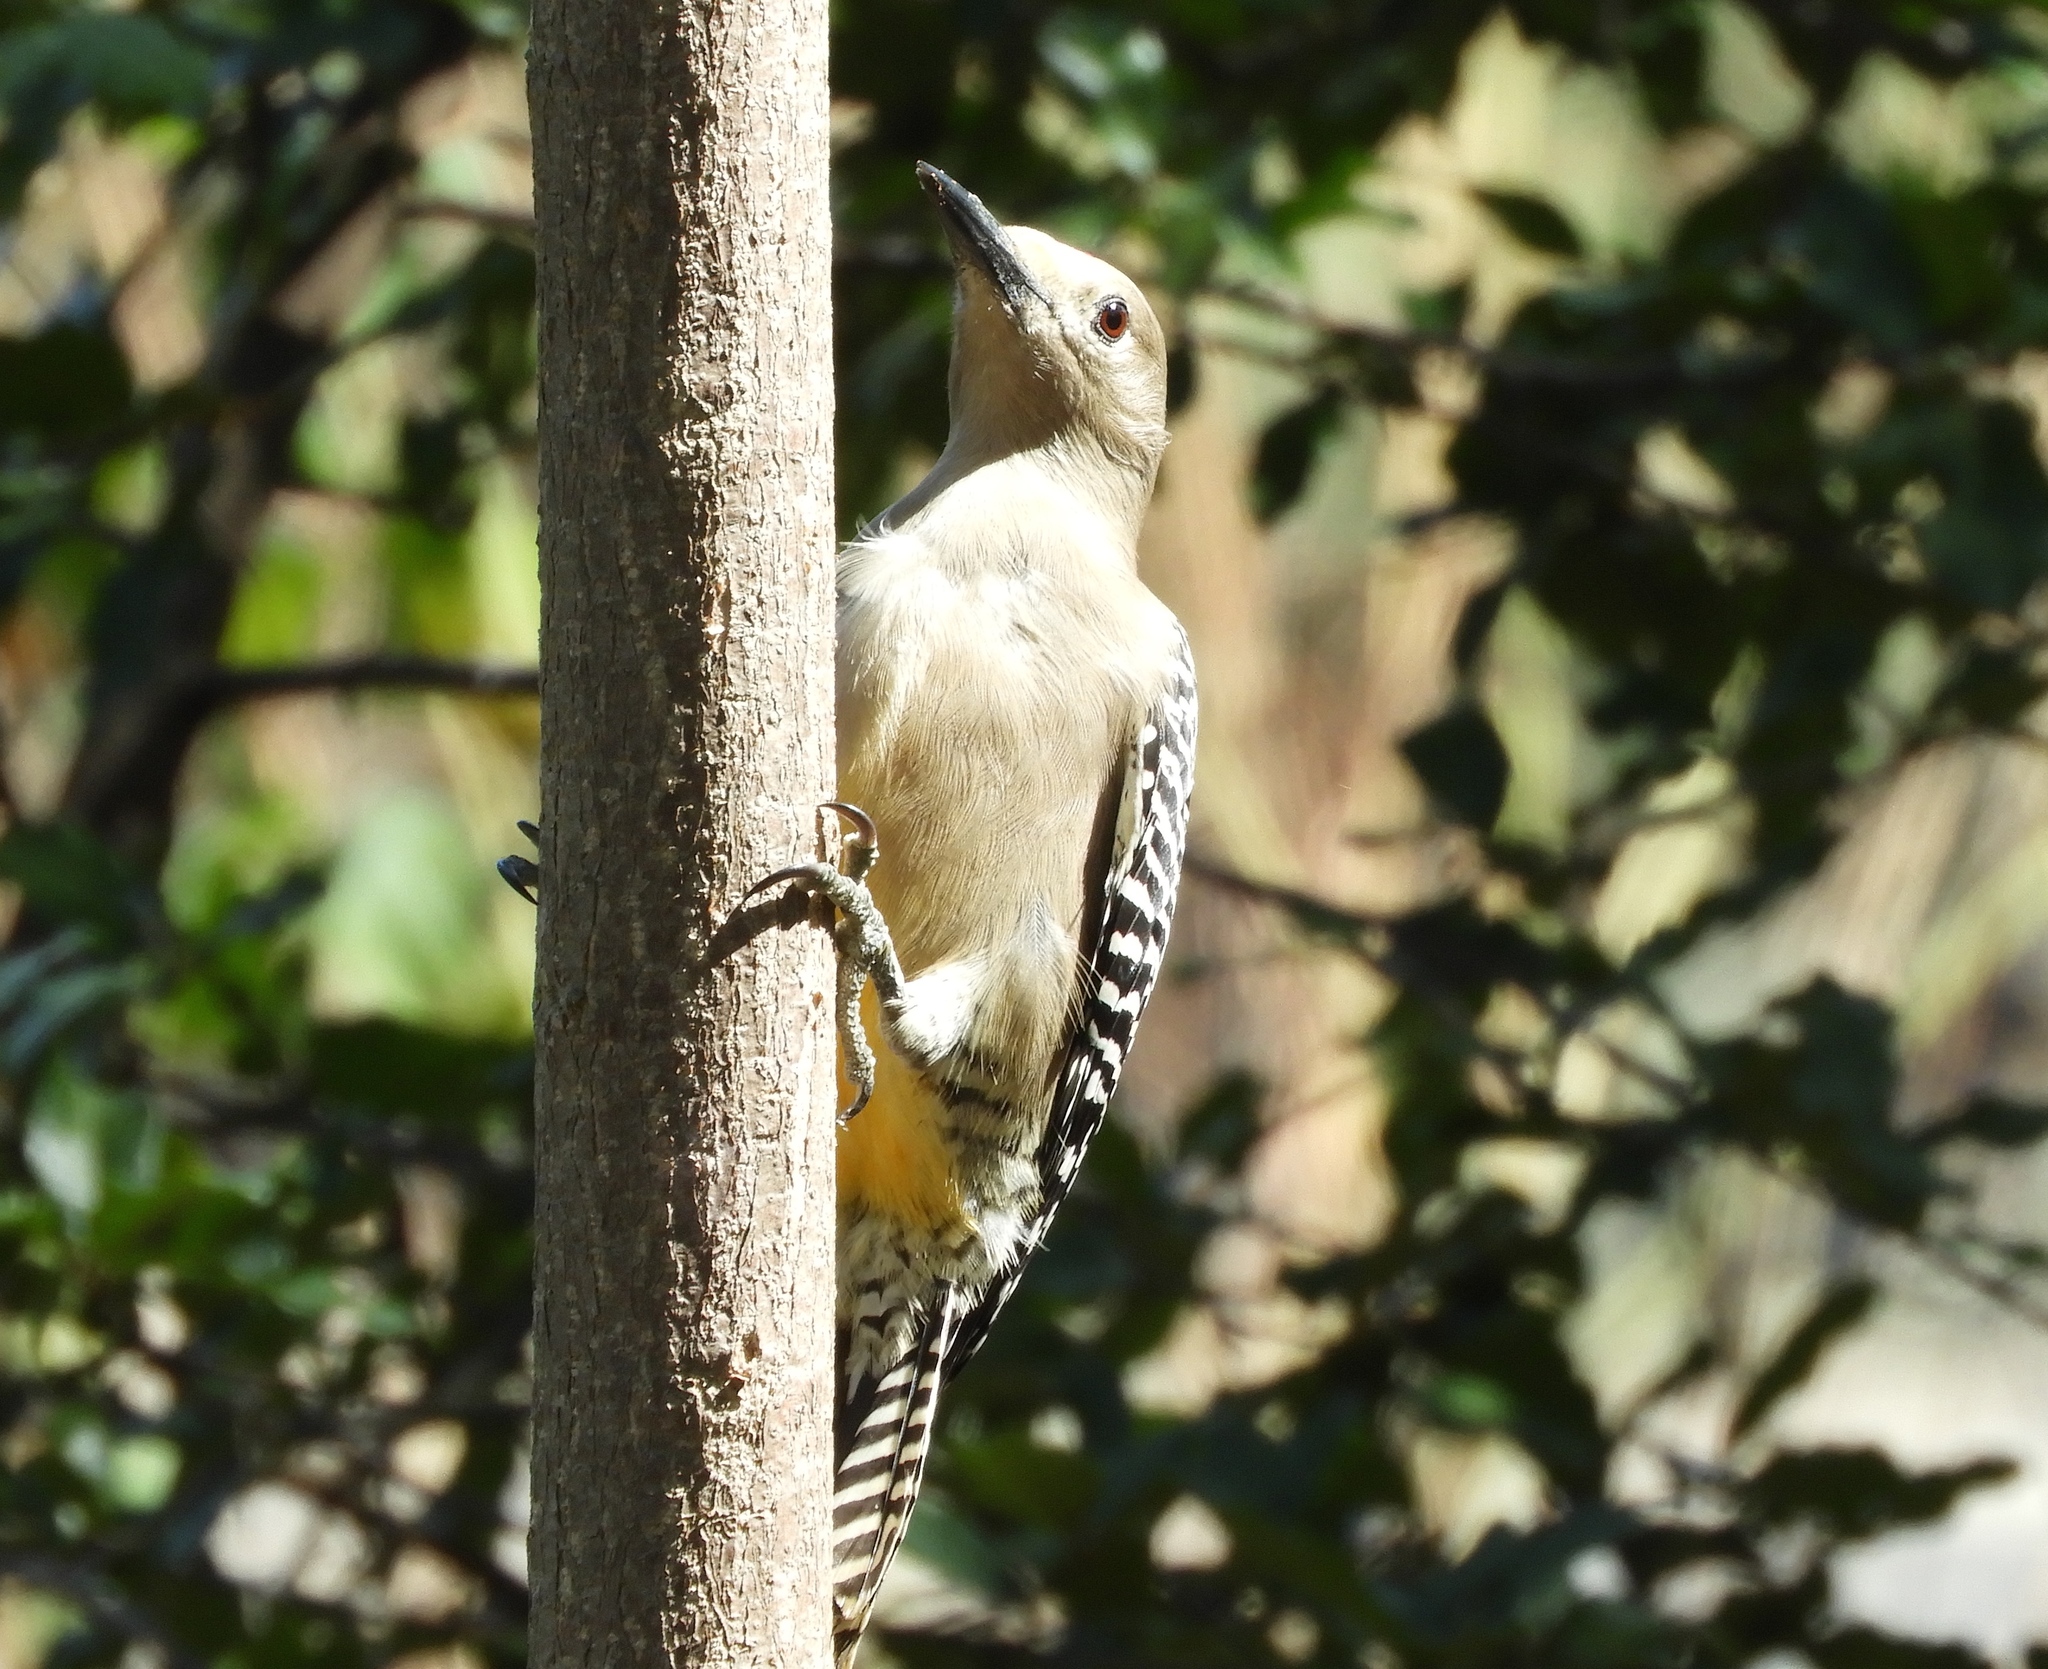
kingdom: Animalia
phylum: Chordata
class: Aves
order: Piciformes
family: Picidae
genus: Melanerpes
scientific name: Melanerpes uropygialis
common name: Gila woodpecker
